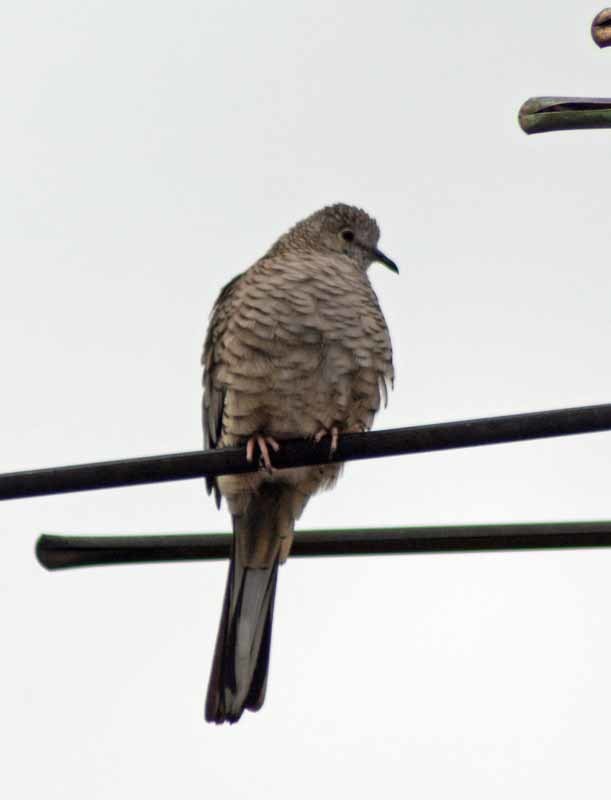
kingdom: Animalia
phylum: Chordata
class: Aves
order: Columbiformes
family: Columbidae
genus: Columbina
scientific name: Columbina inca
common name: Inca dove
